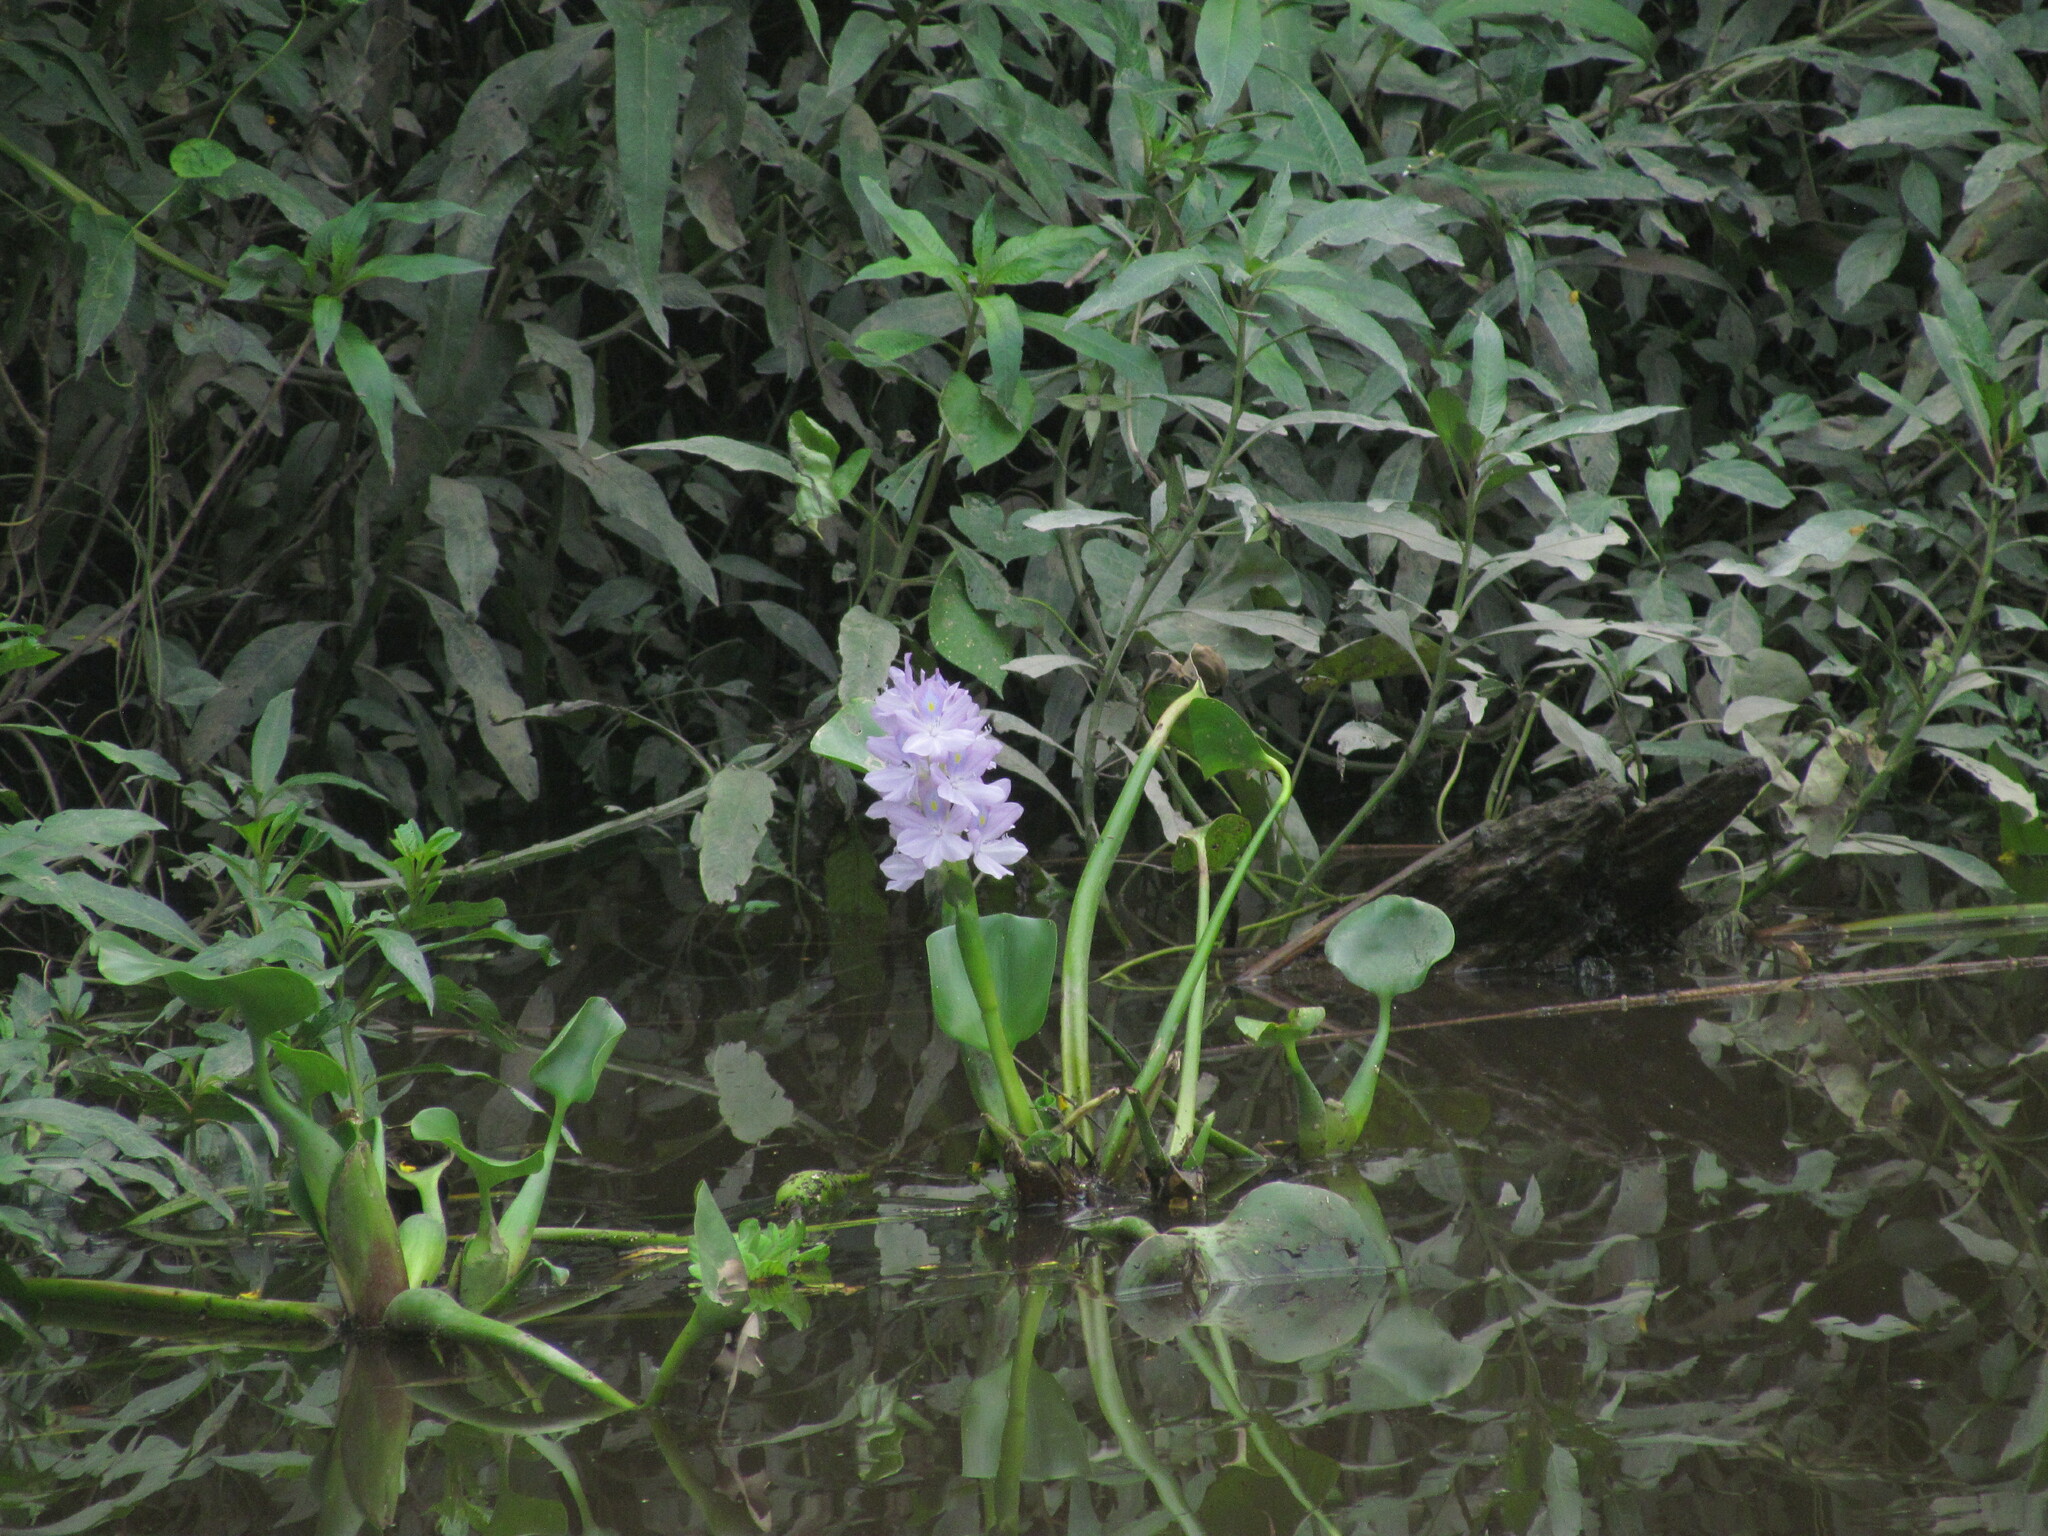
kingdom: Plantae
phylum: Tracheophyta
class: Liliopsida
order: Commelinales
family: Pontederiaceae
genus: Pontederia
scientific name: Pontederia crassipes
